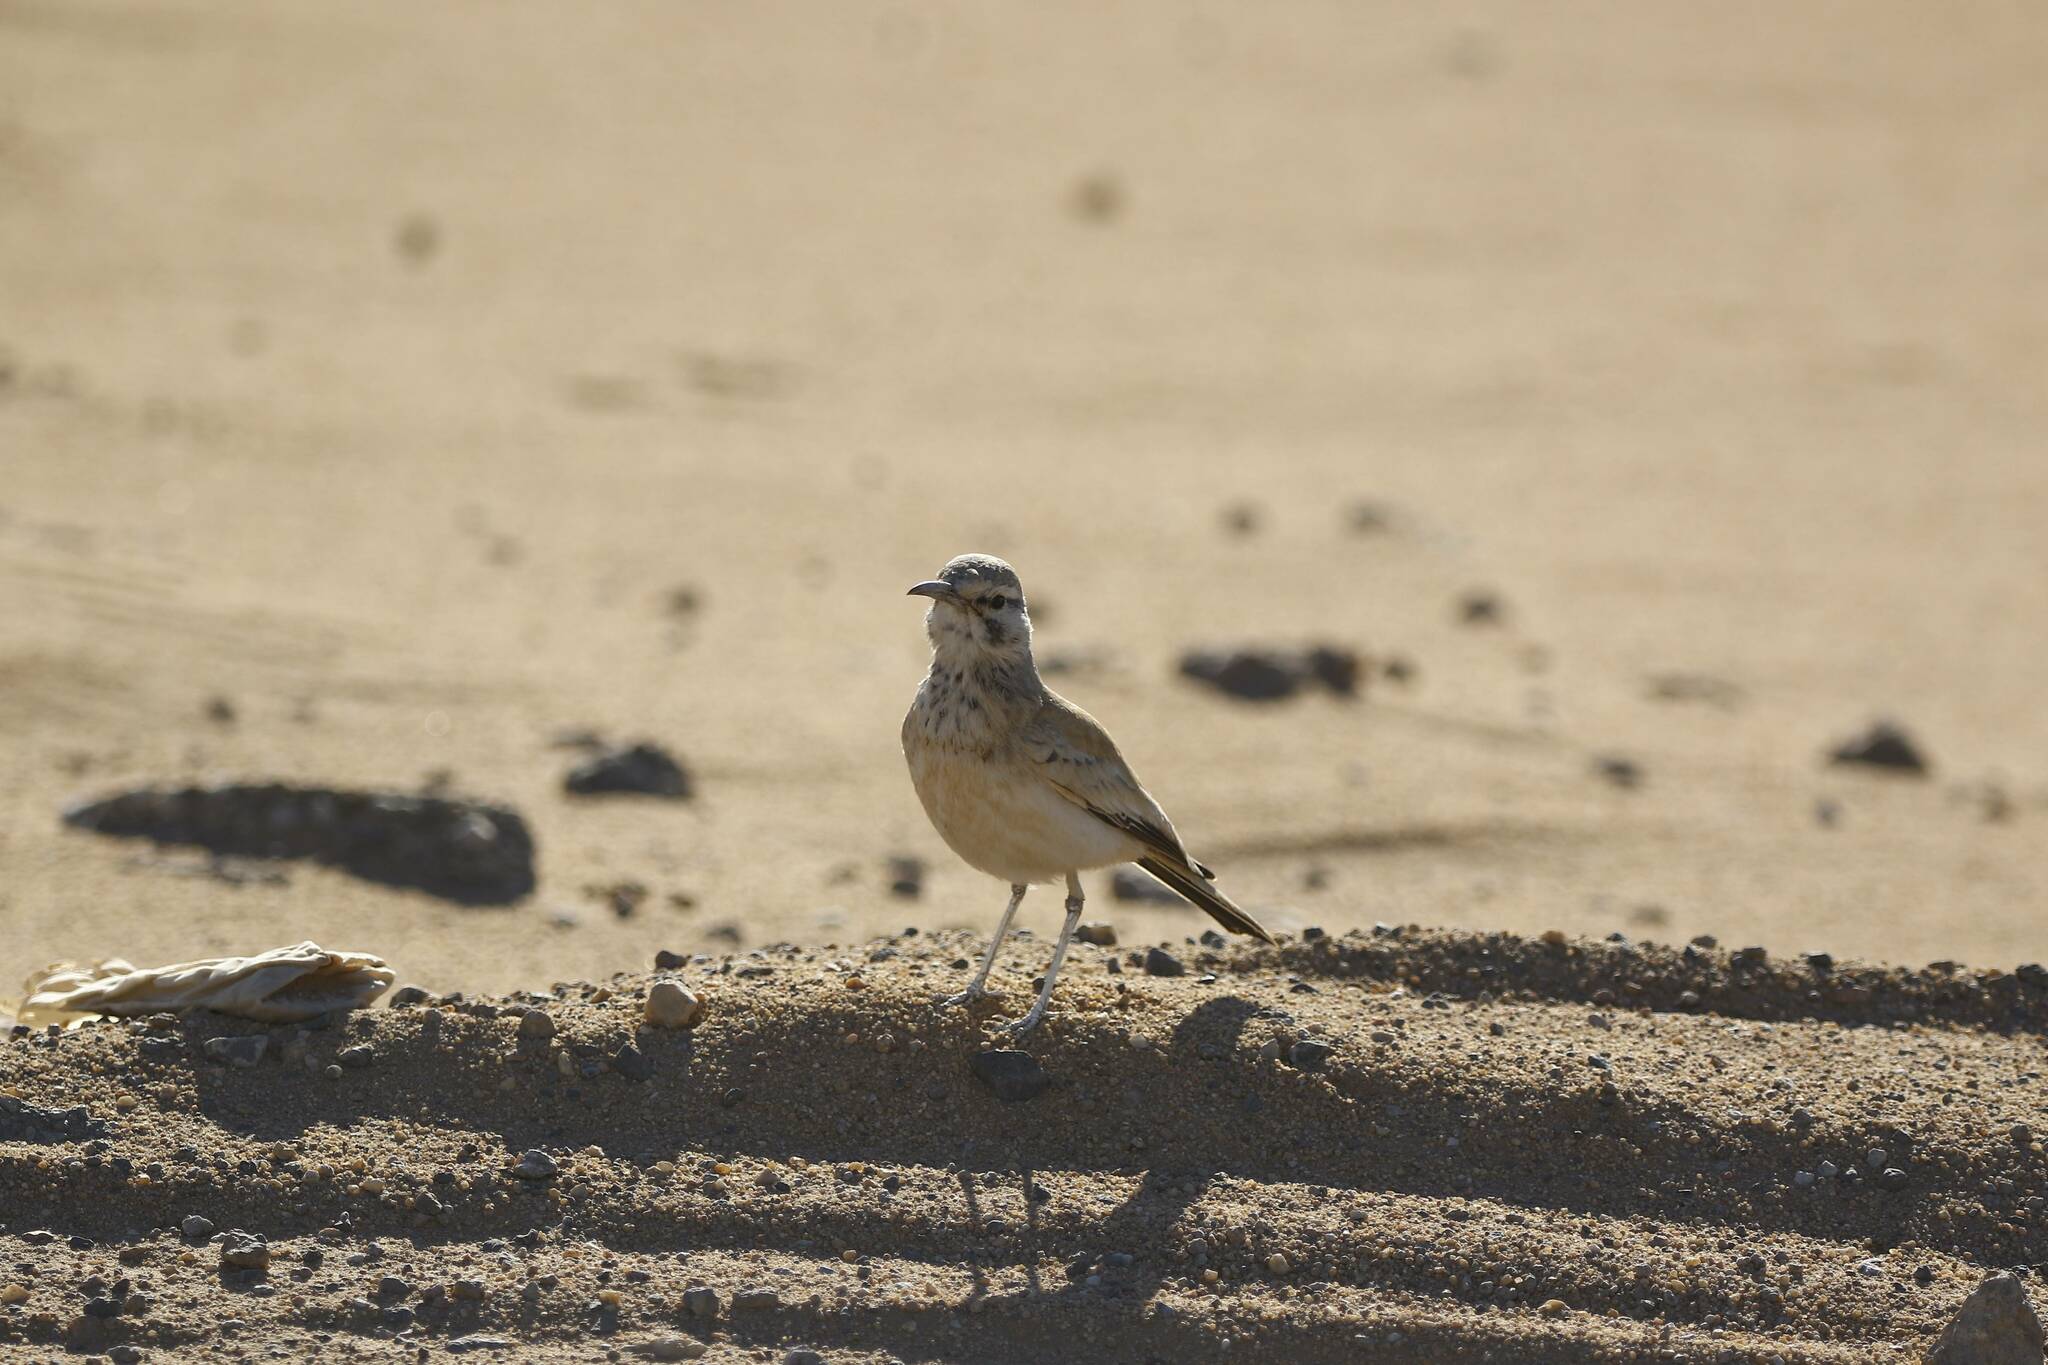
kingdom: Animalia
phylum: Chordata
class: Aves
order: Passeriformes
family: Alaudidae
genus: Alaemon
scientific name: Alaemon alaudipes
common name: Greater hoopoe-lark
